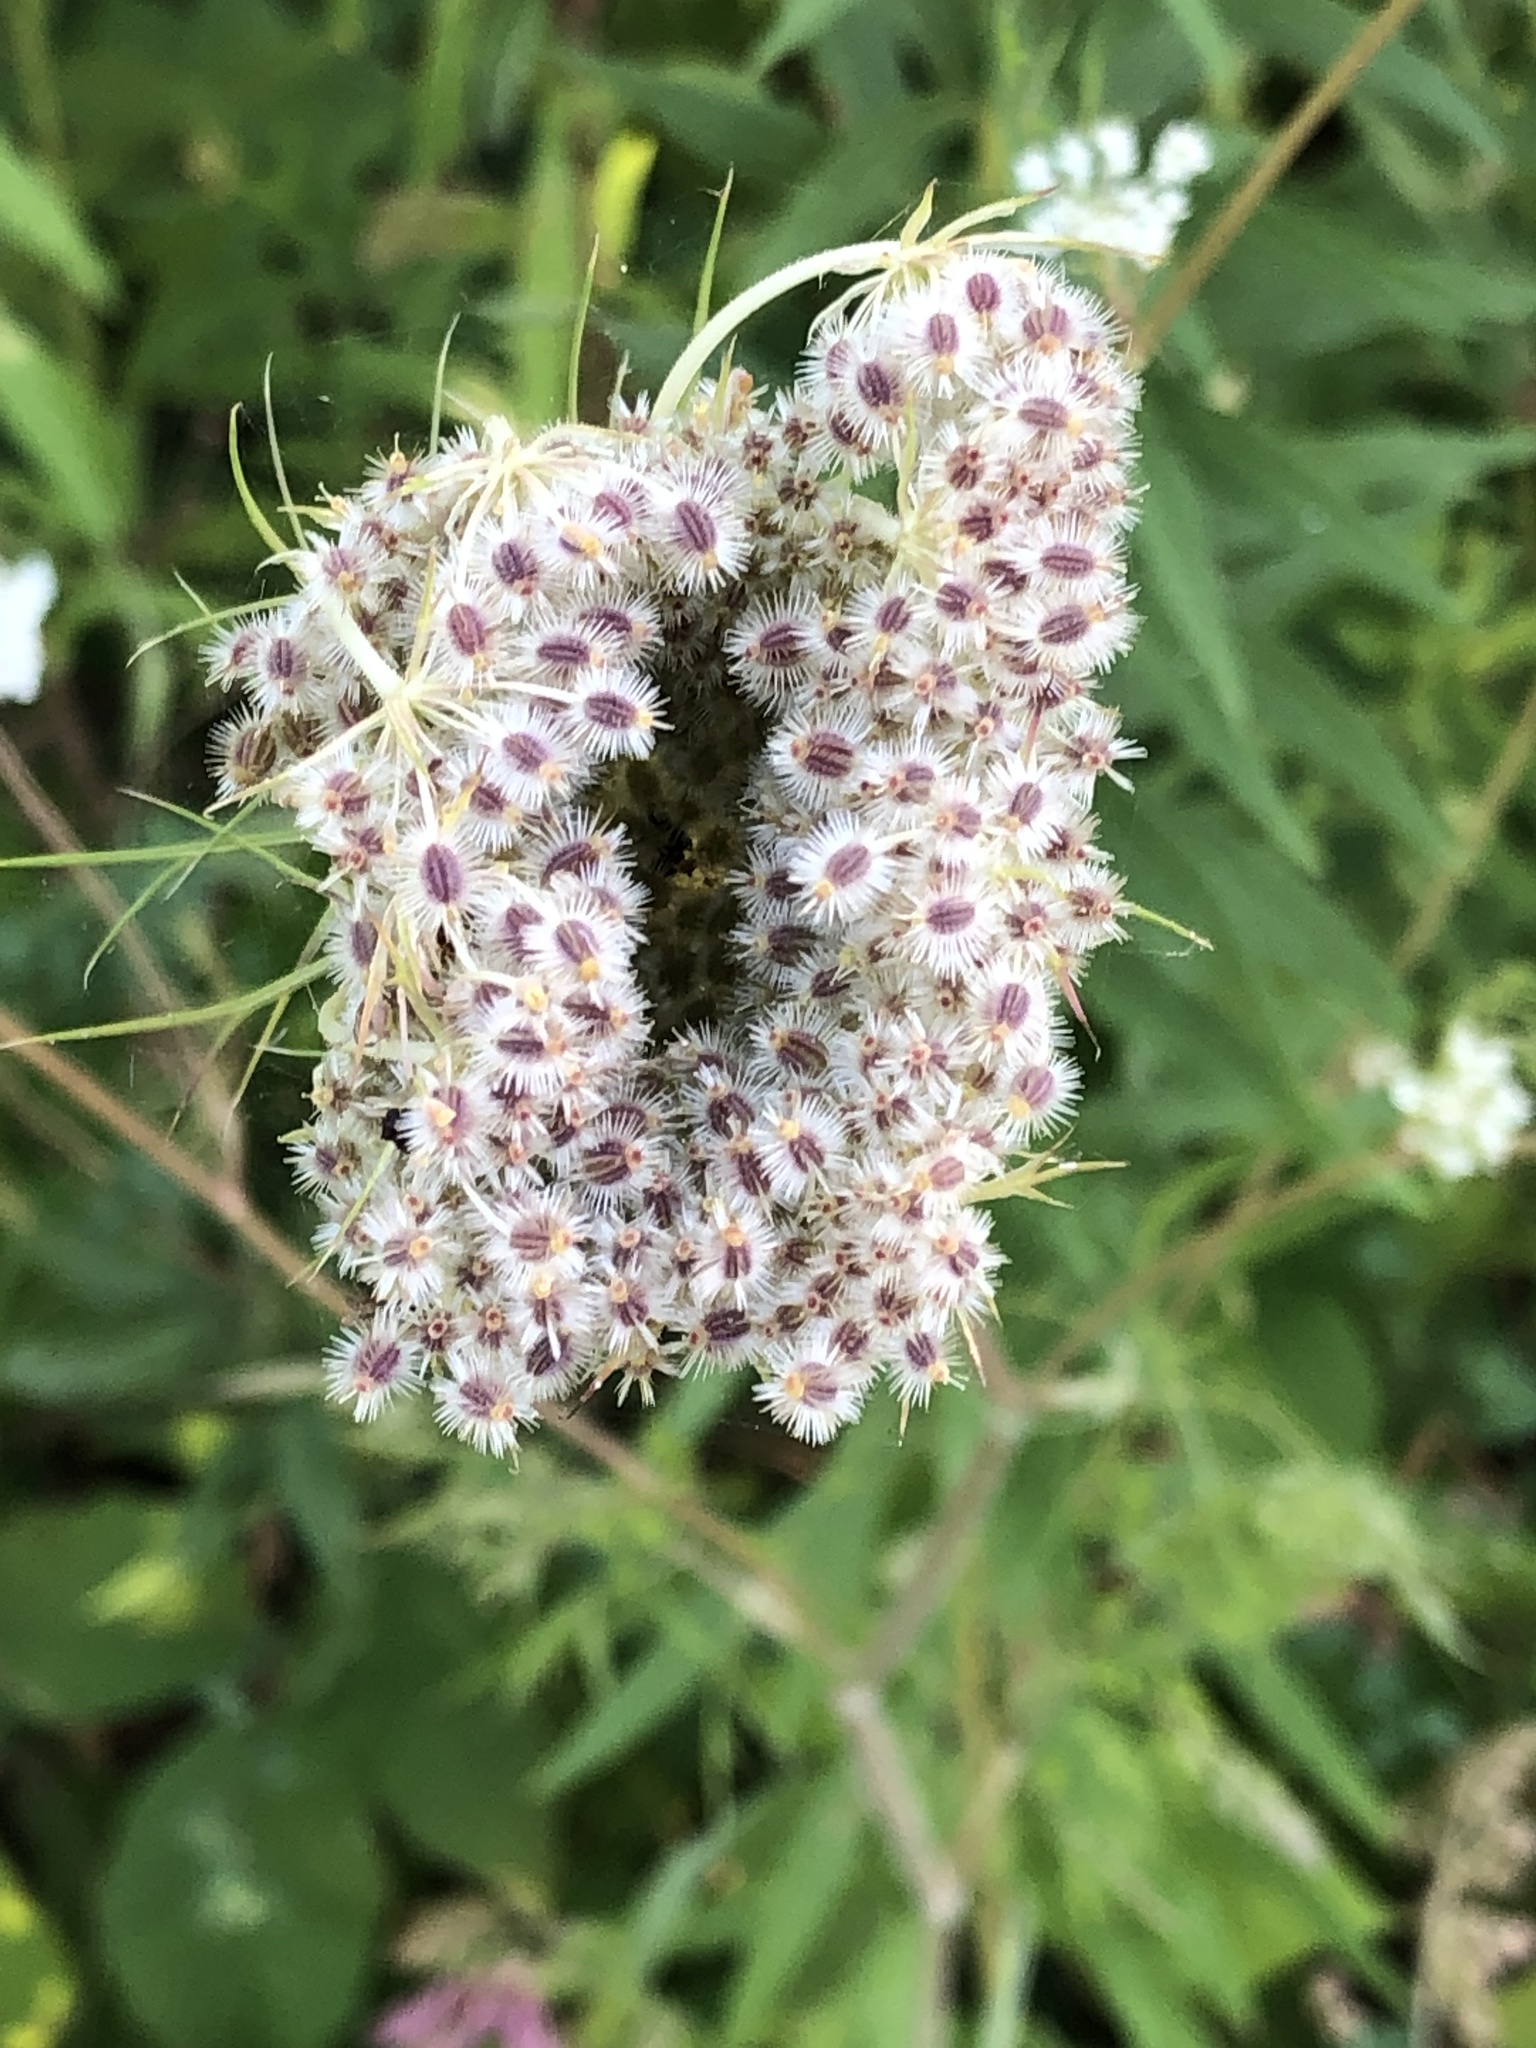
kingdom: Plantae
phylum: Tracheophyta
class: Magnoliopsida
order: Apiales
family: Apiaceae
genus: Daucus
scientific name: Daucus carota
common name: Wild carrot
